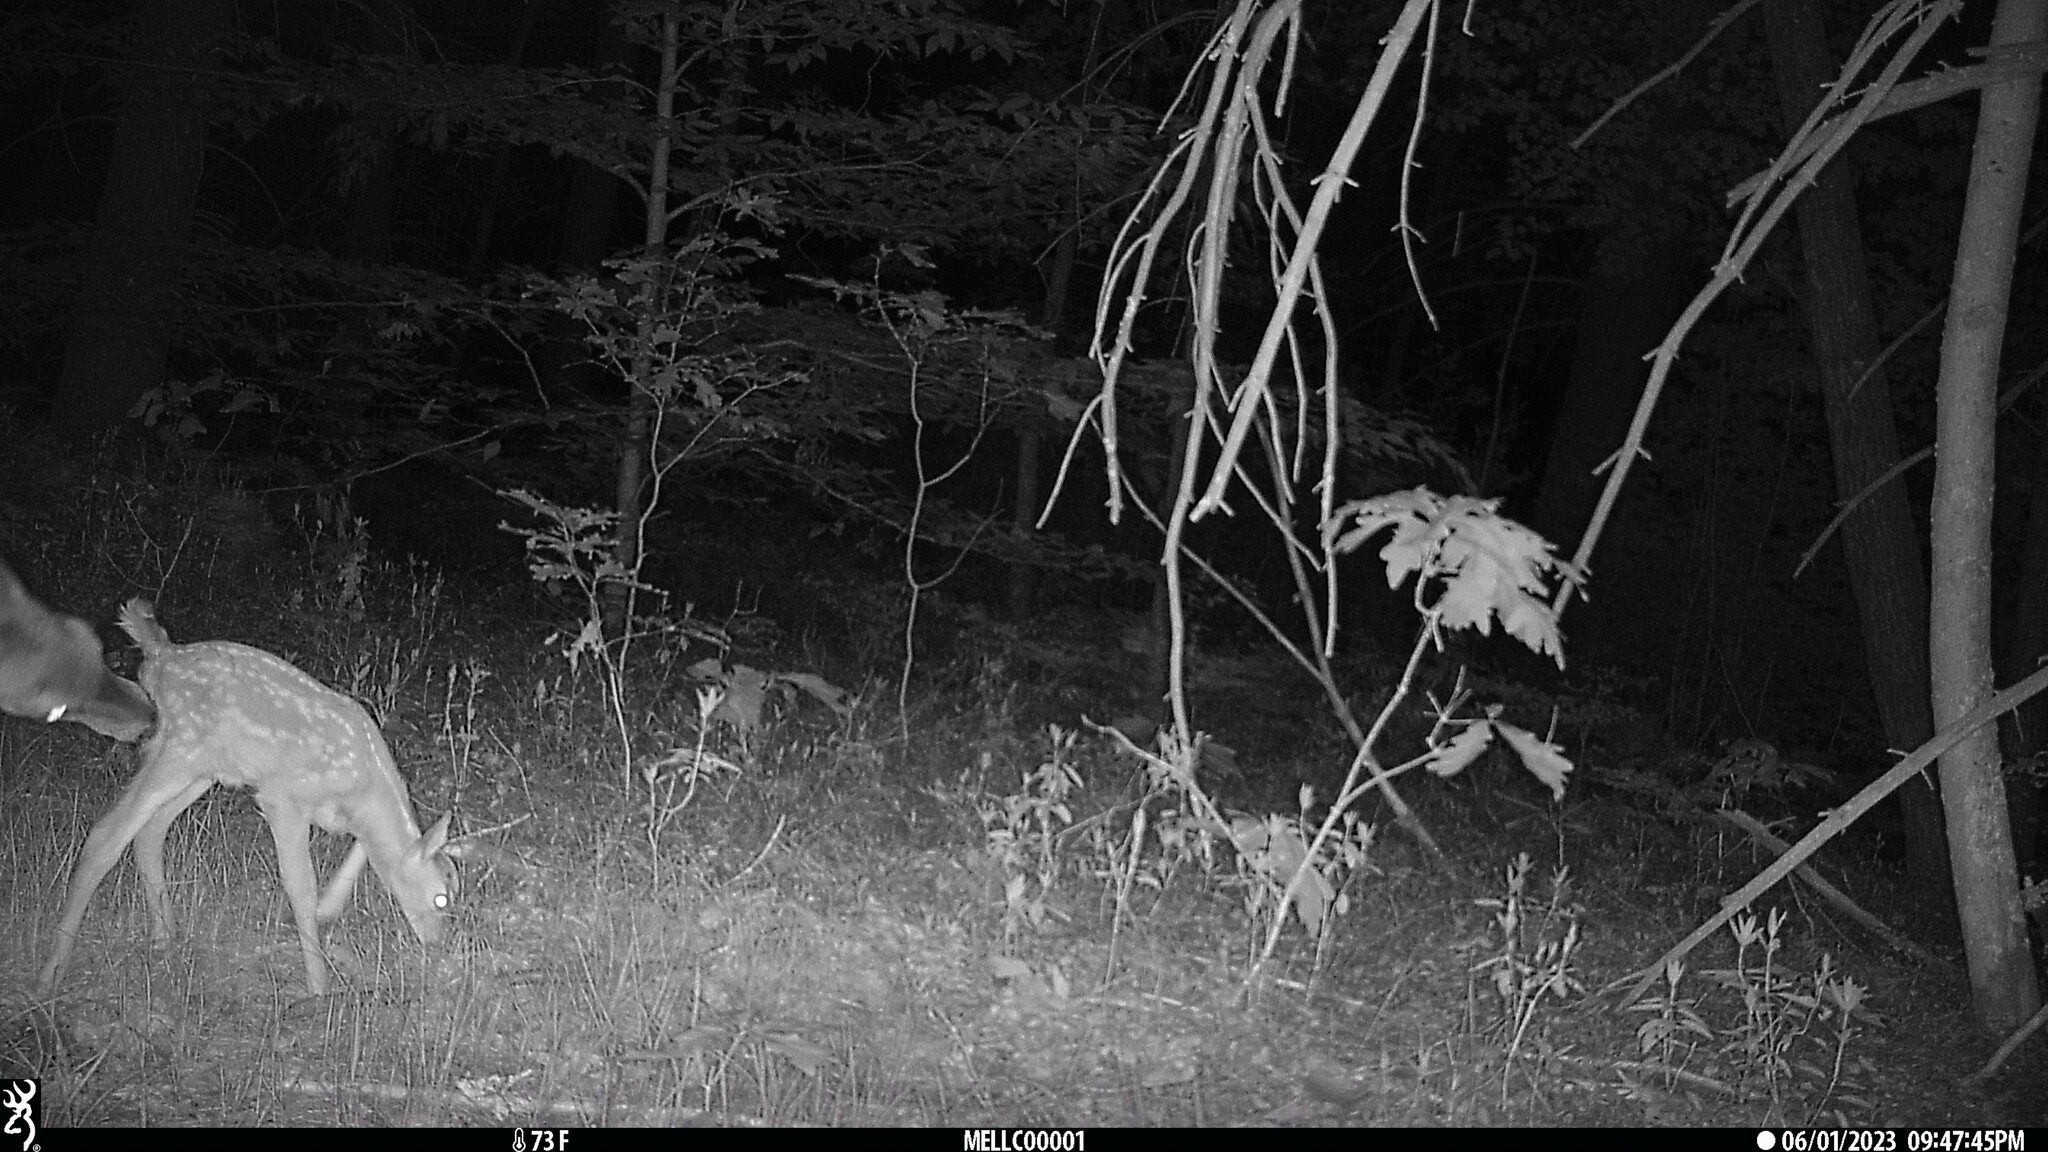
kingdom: Animalia
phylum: Chordata
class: Mammalia
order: Artiodactyla
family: Cervidae
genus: Odocoileus
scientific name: Odocoileus virginianus
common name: White-tailed deer
